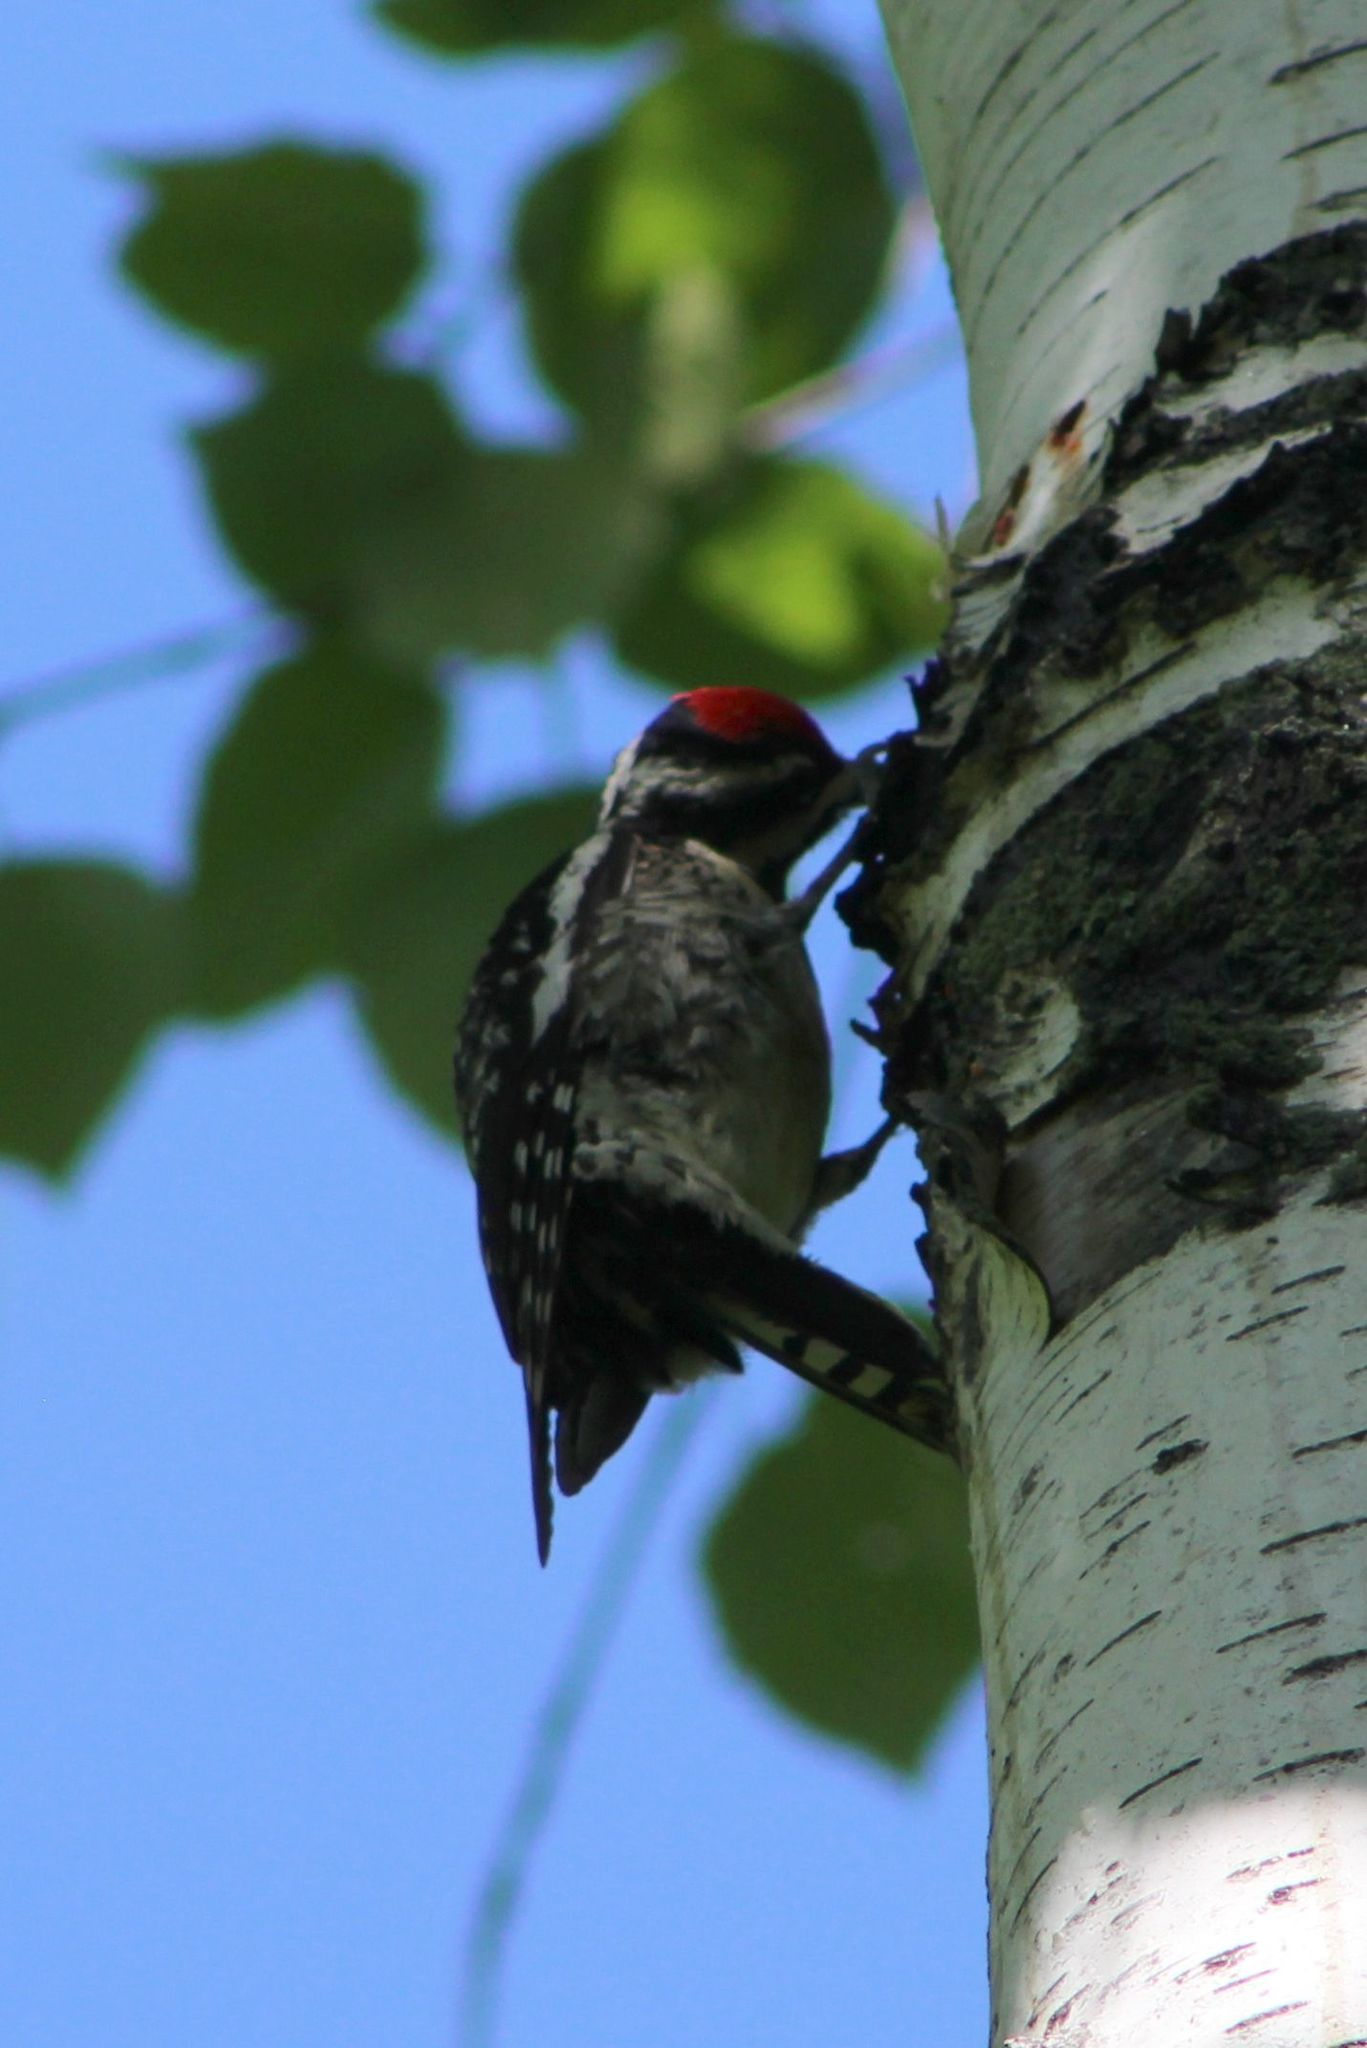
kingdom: Animalia
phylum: Chordata
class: Aves
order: Piciformes
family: Picidae
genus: Sphyrapicus
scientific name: Sphyrapicus varius
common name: Yellow-bellied sapsucker
